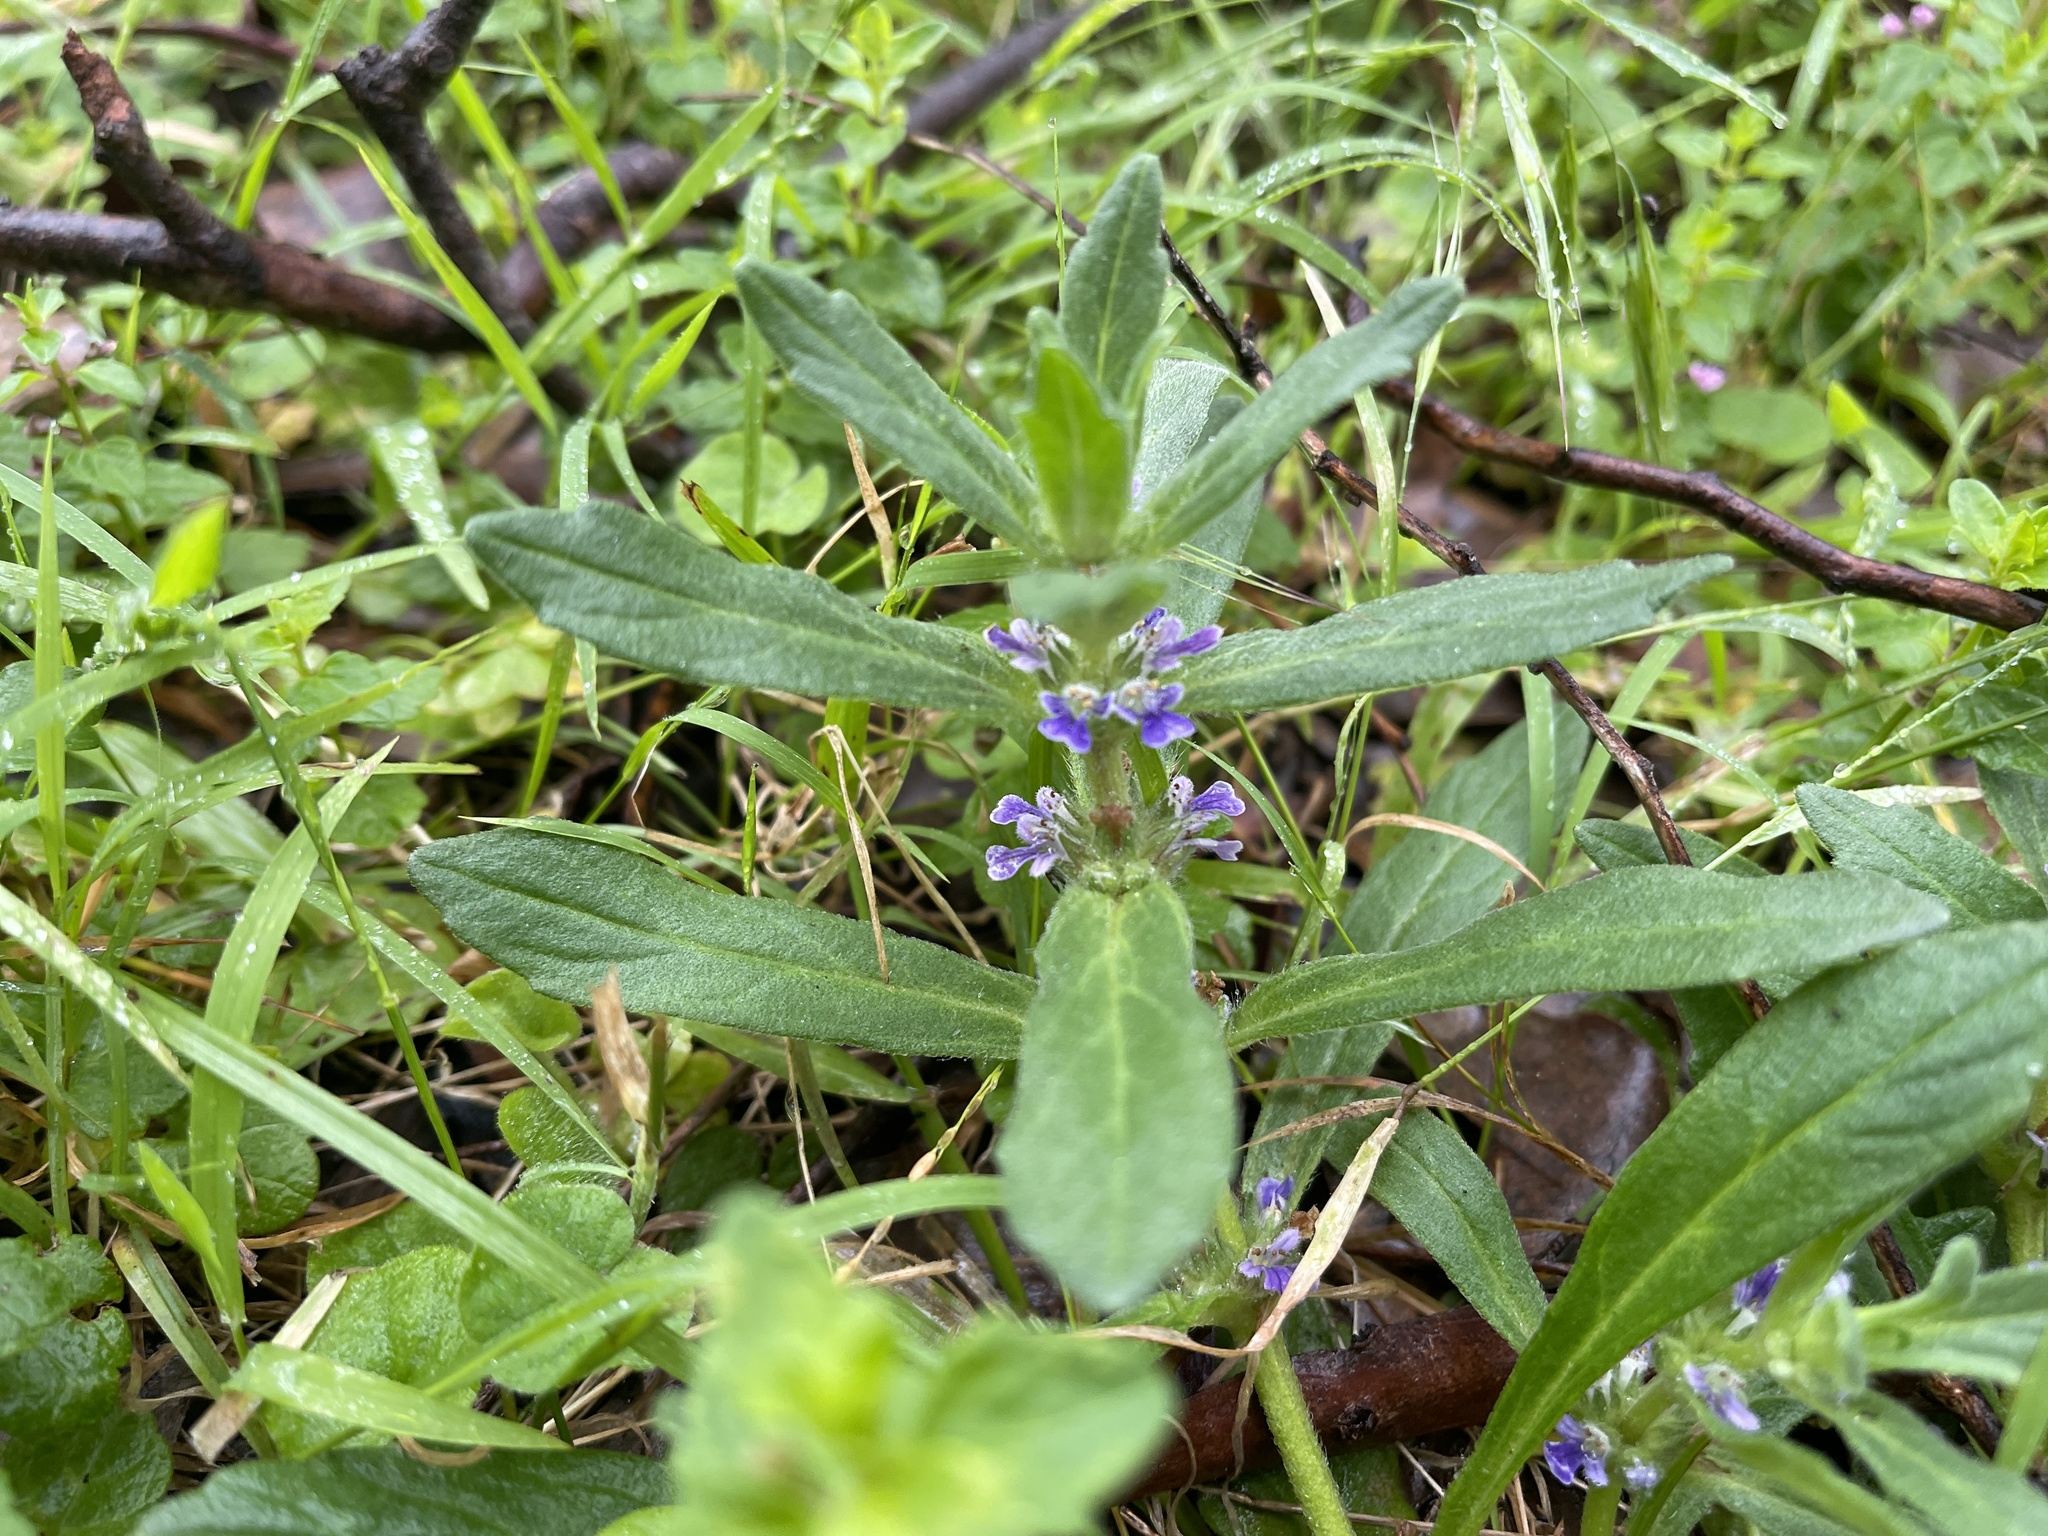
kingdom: Plantae
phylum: Tracheophyta
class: Magnoliopsida
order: Lamiales
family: Lamiaceae
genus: Ajuga
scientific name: Ajuga australis
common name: Australian bugle
